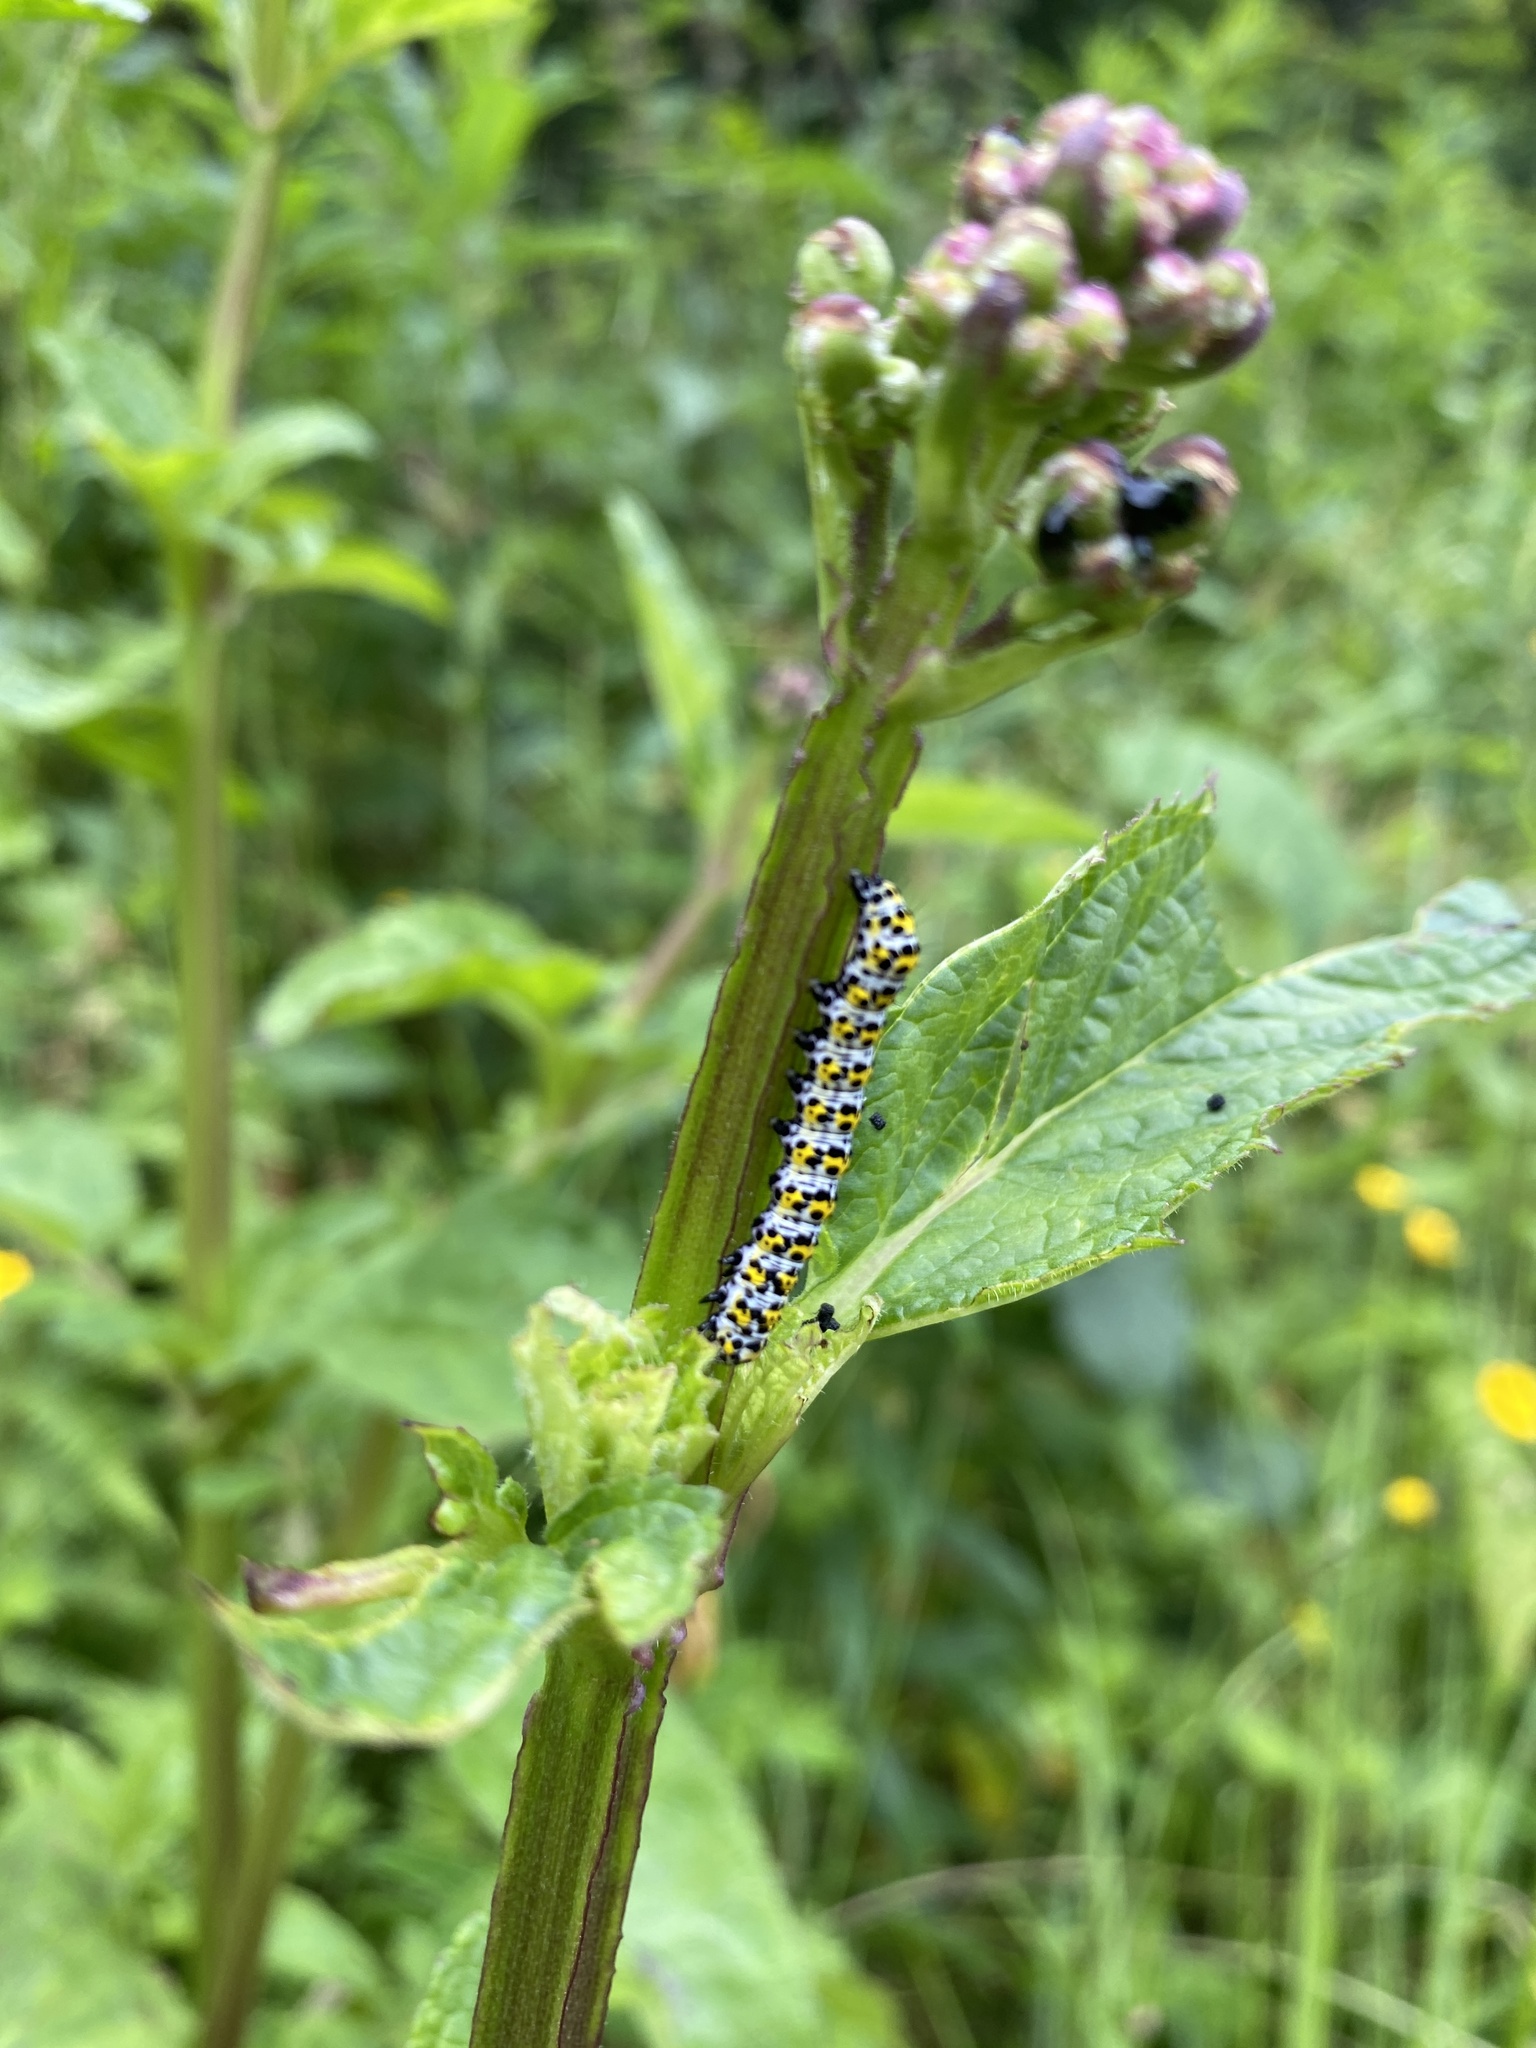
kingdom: Animalia
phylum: Arthropoda
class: Insecta
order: Lepidoptera
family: Noctuidae
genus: Cucullia
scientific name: Cucullia verbasci
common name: Mullein
